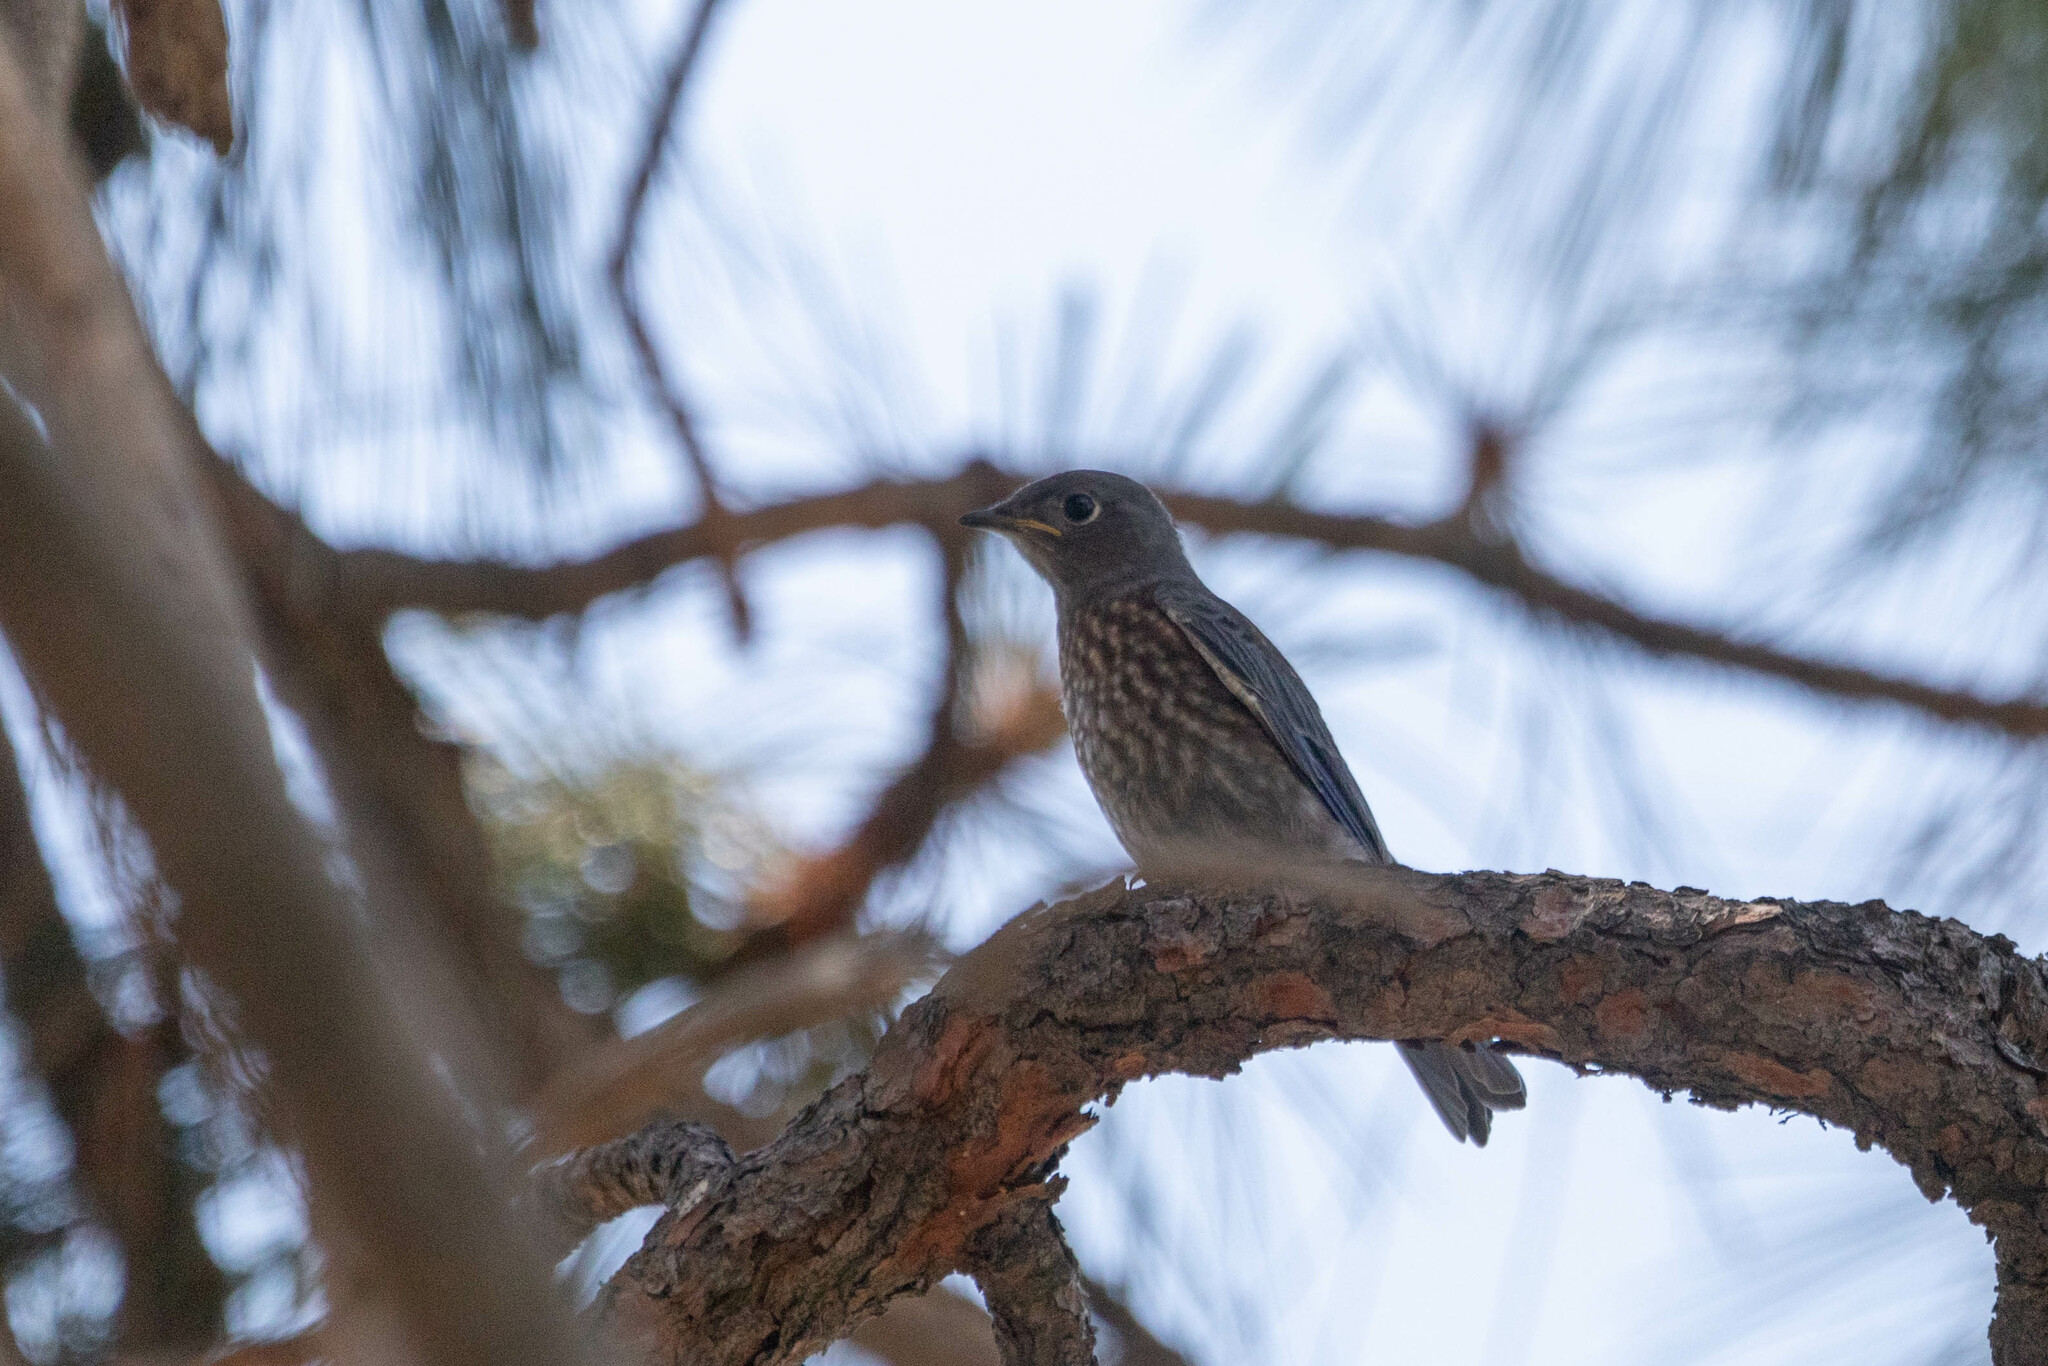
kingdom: Animalia
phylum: Chordata
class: Aves
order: Passeriformes
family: Turdidae
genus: Sialia
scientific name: Sialia mexicana
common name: Western bluebird
